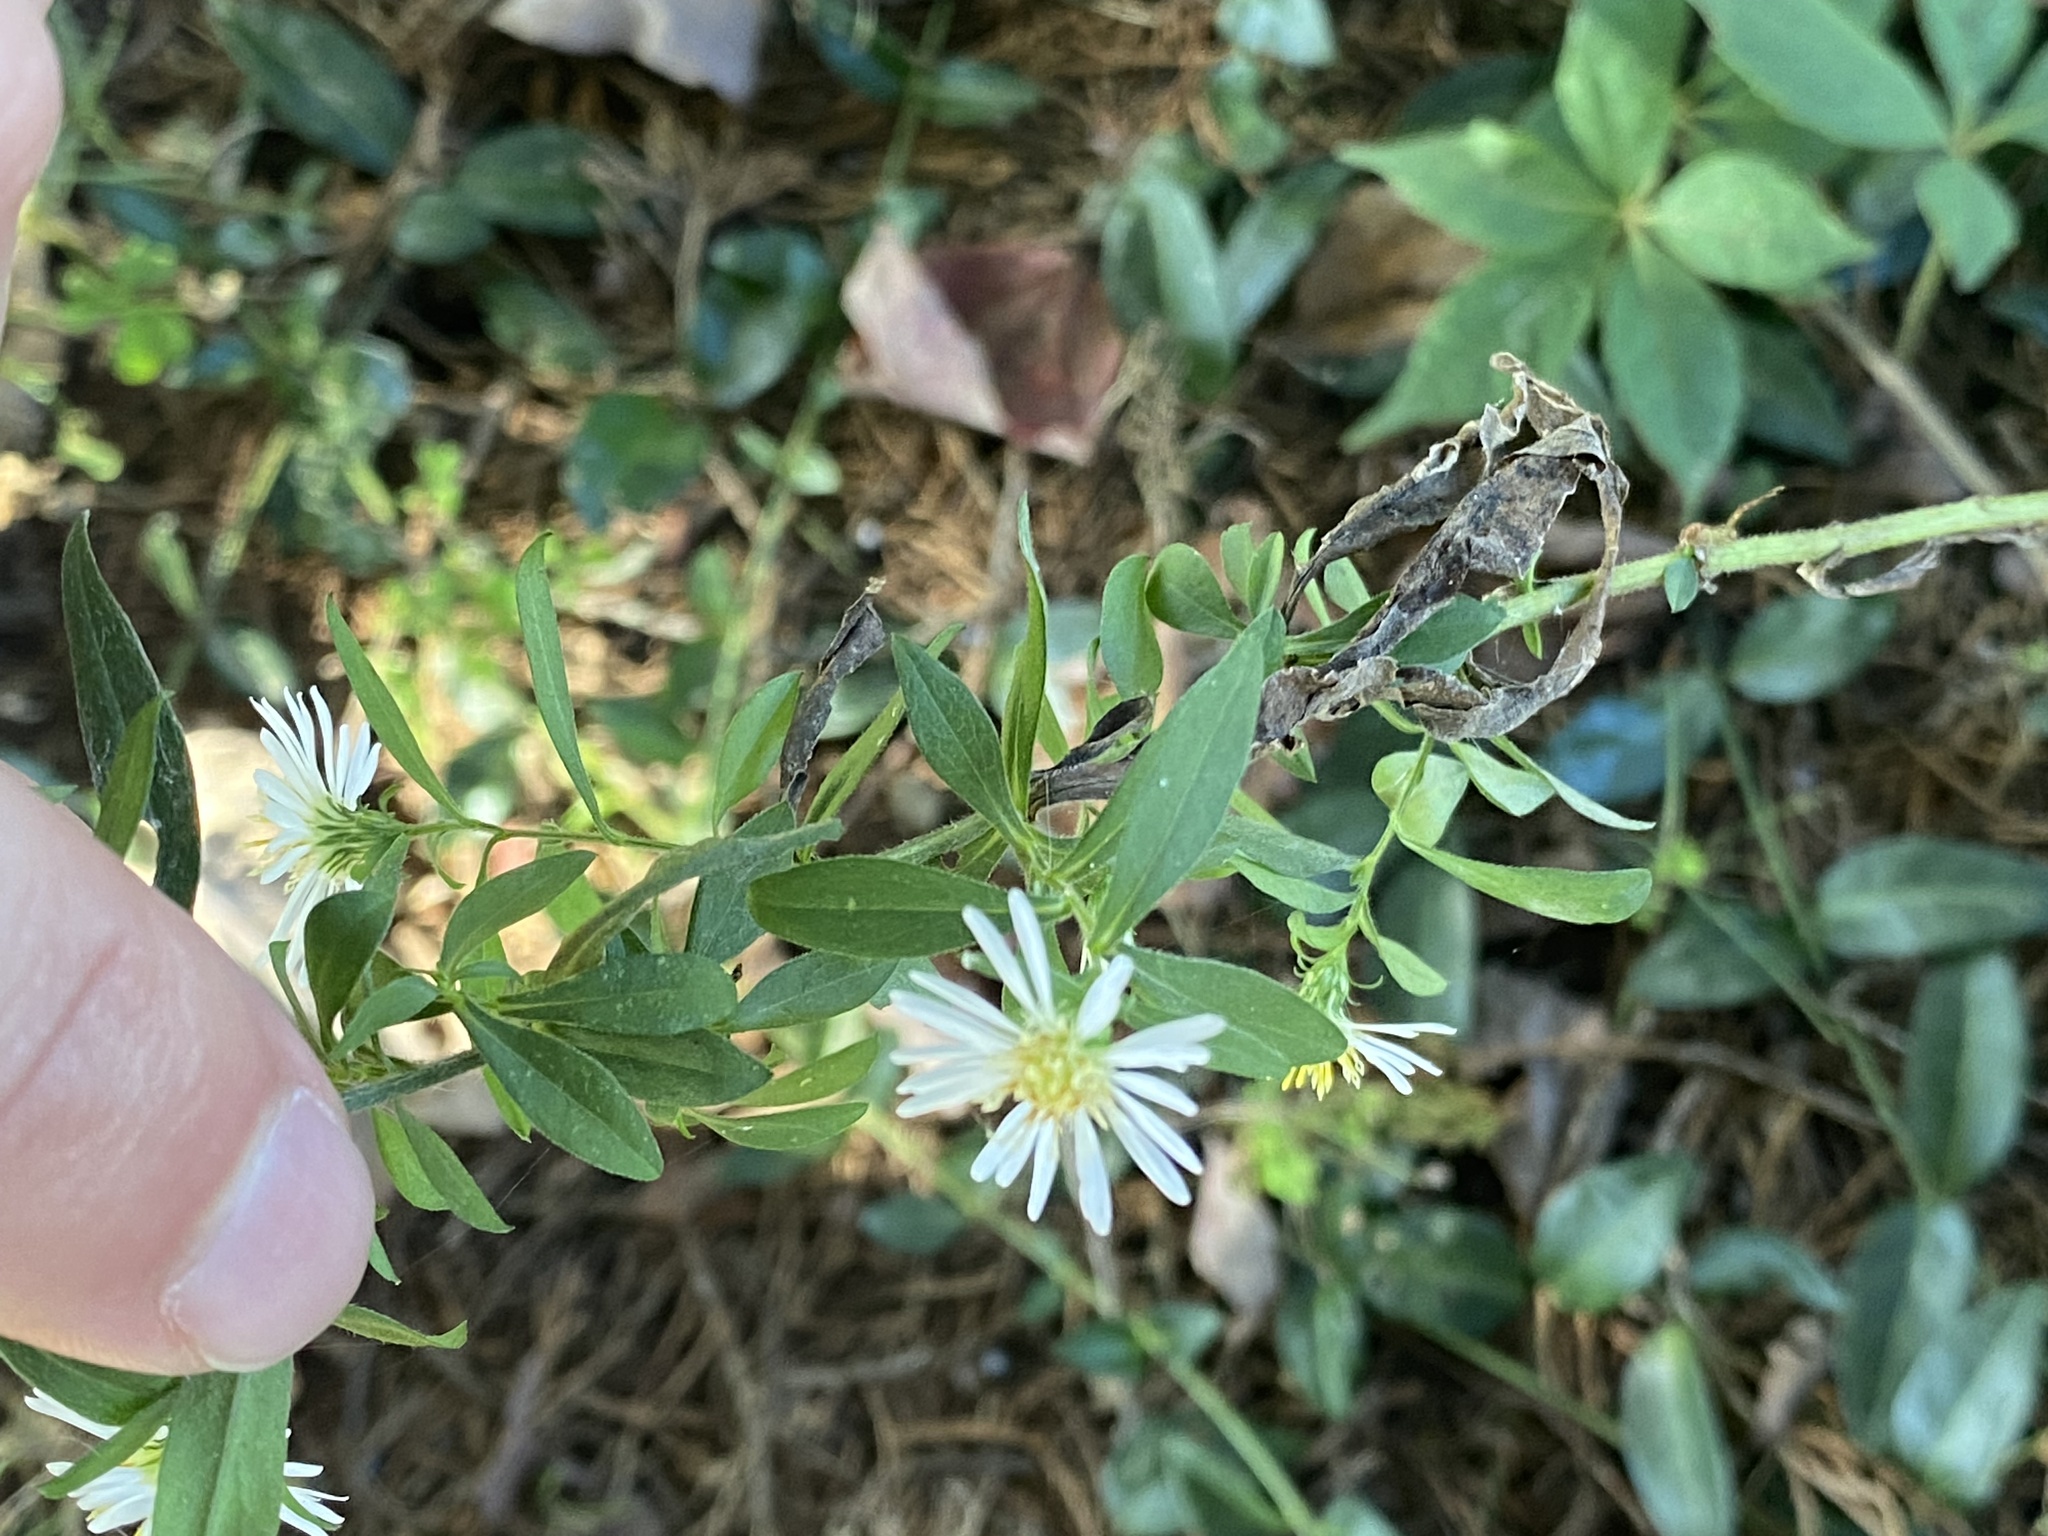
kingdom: Plantae
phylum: Tracheophyta
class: Magnoliopsida
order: Asterales
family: Asteraceae
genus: Symphyotrichum
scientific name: Symphyotrichum ontarionis
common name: Bottomland aster
